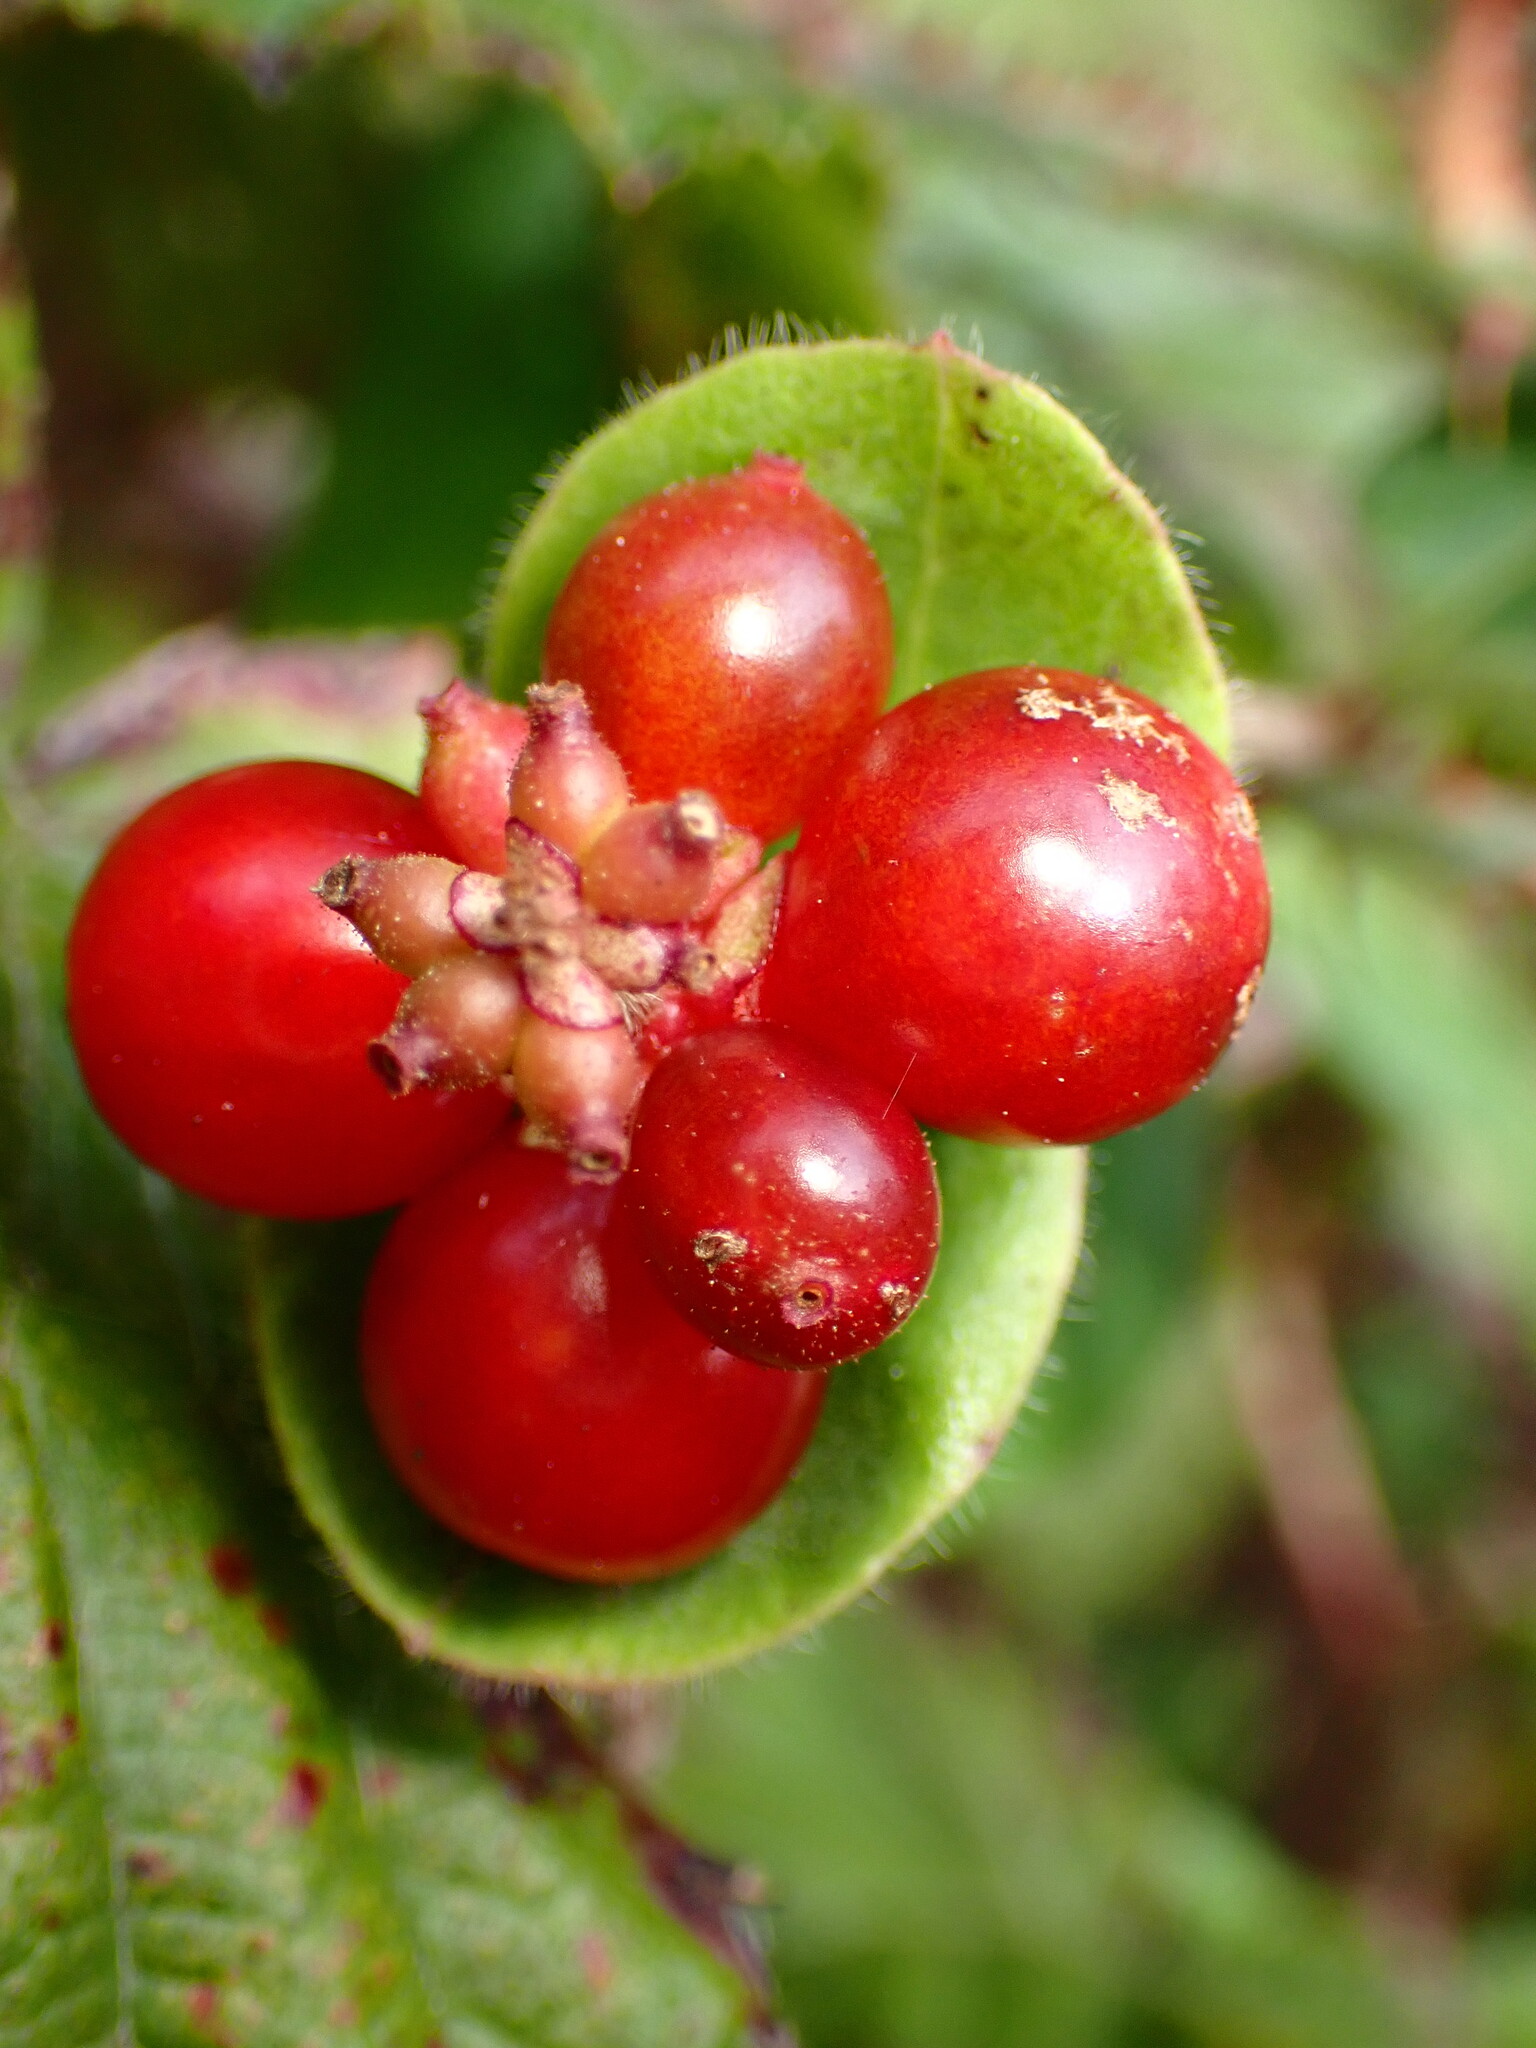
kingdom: Plantae
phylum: Tracheophyta
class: Magnoliopsida
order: Dipsacales
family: Caprifoliaceae
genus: Lonicera
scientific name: Lonicera hispidula
